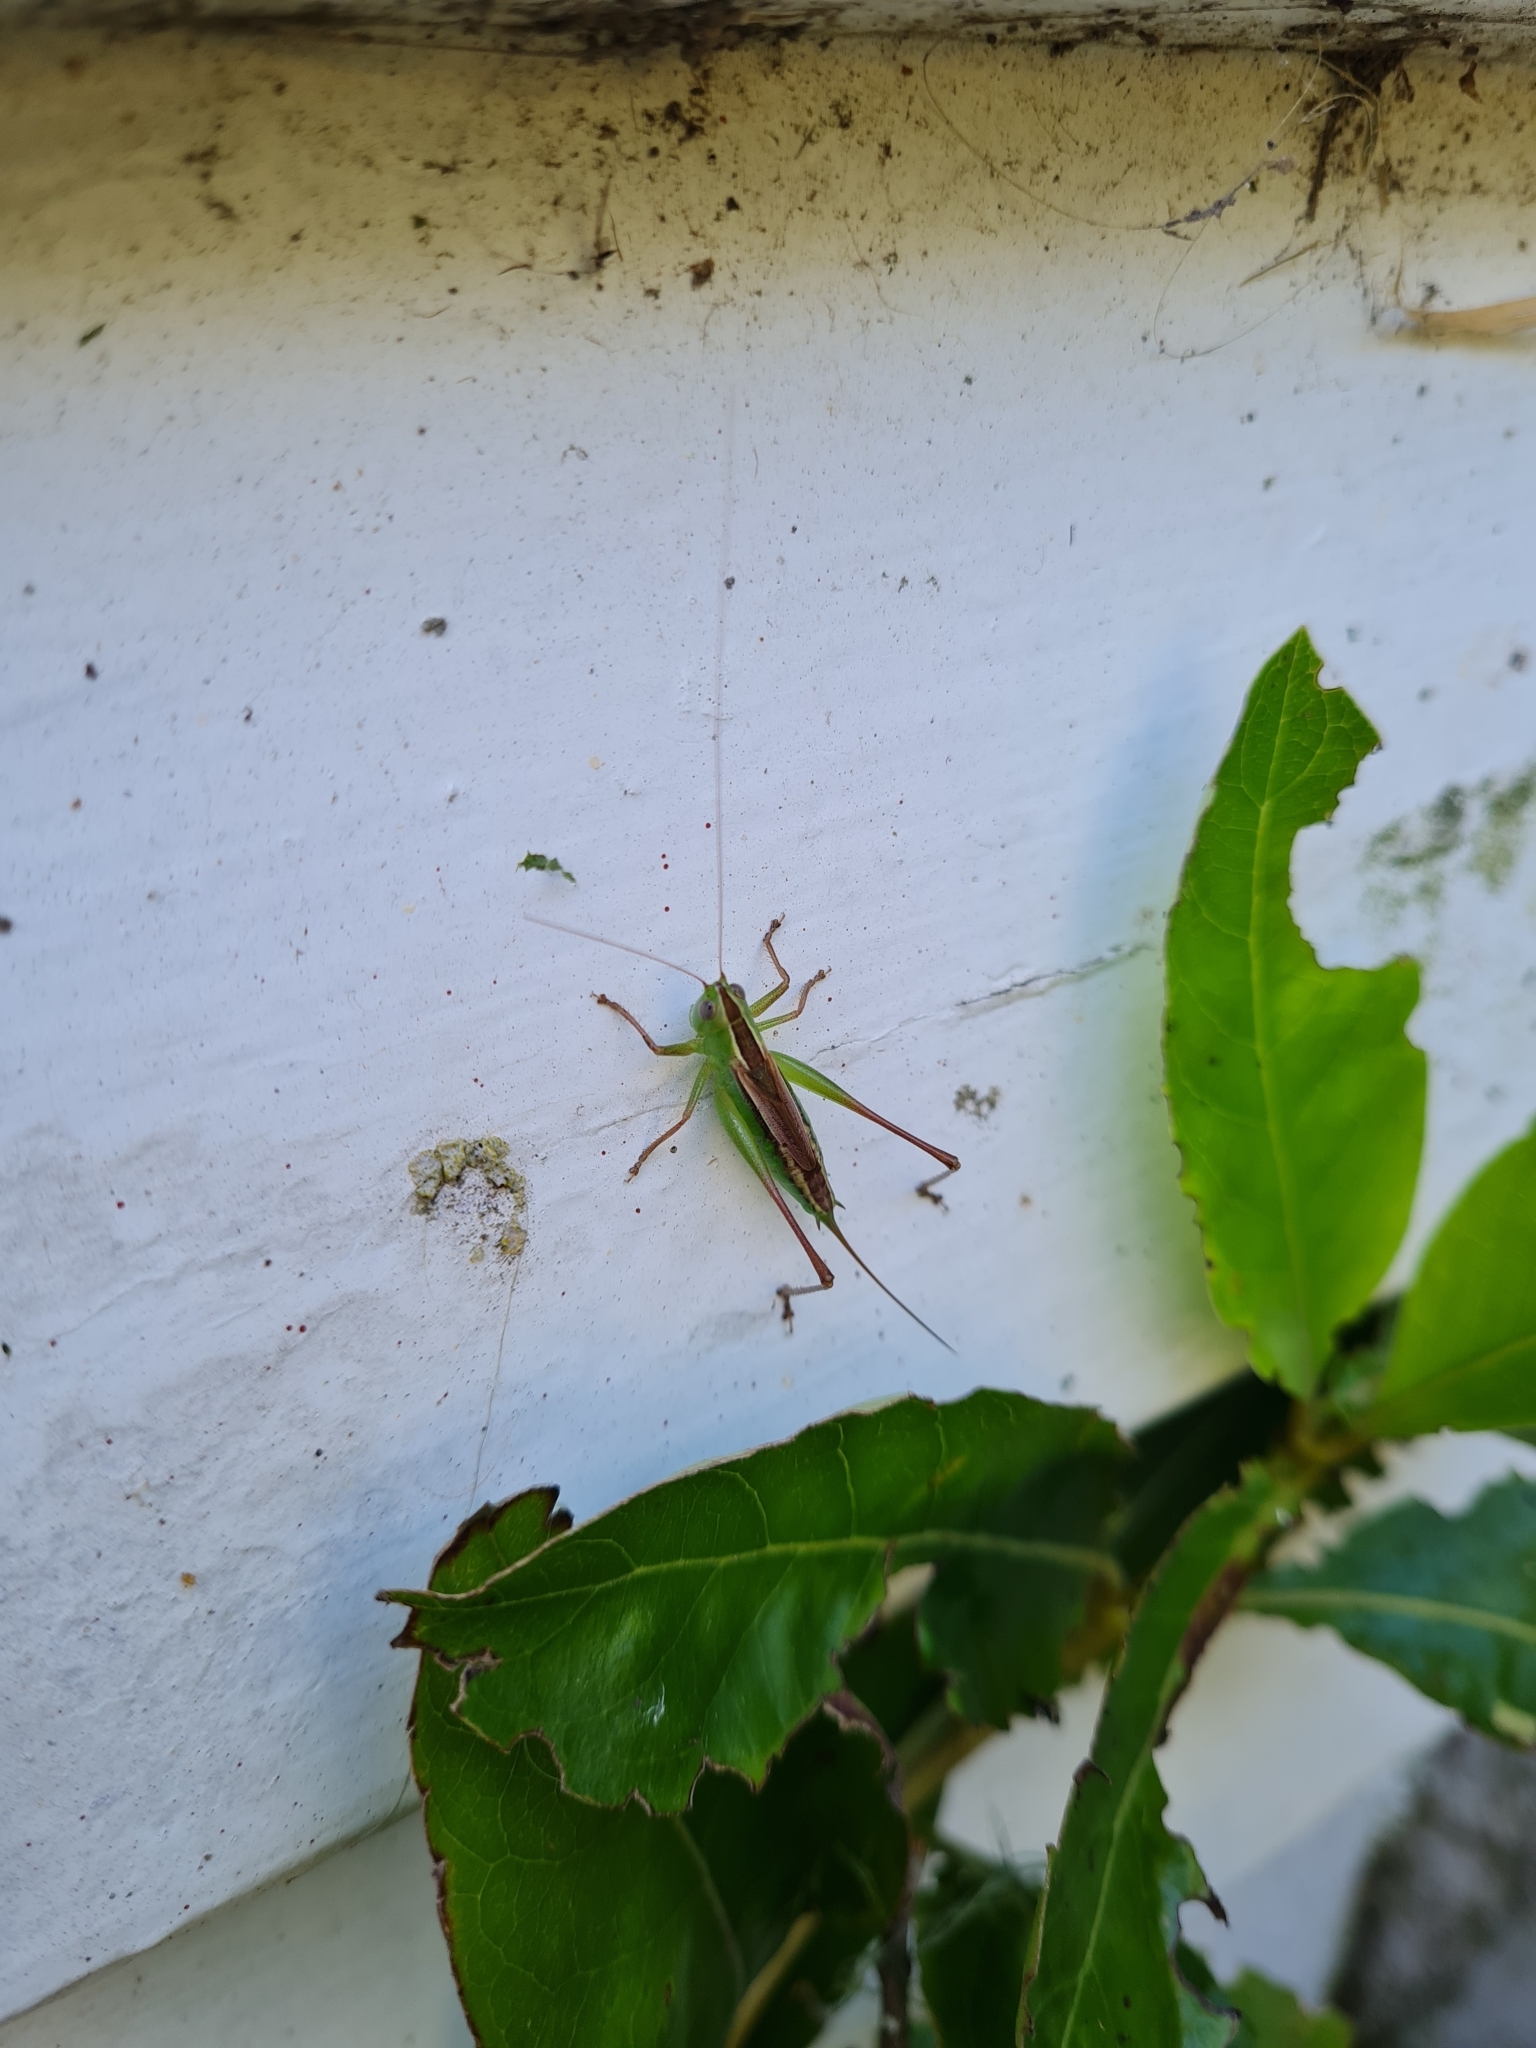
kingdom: Animalia
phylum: Arthropoda
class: Insecta
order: Orthoptera
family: Tettigoniidae
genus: Conocephalus
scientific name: Conocephalus albescens
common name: Whitish meadow katydid
